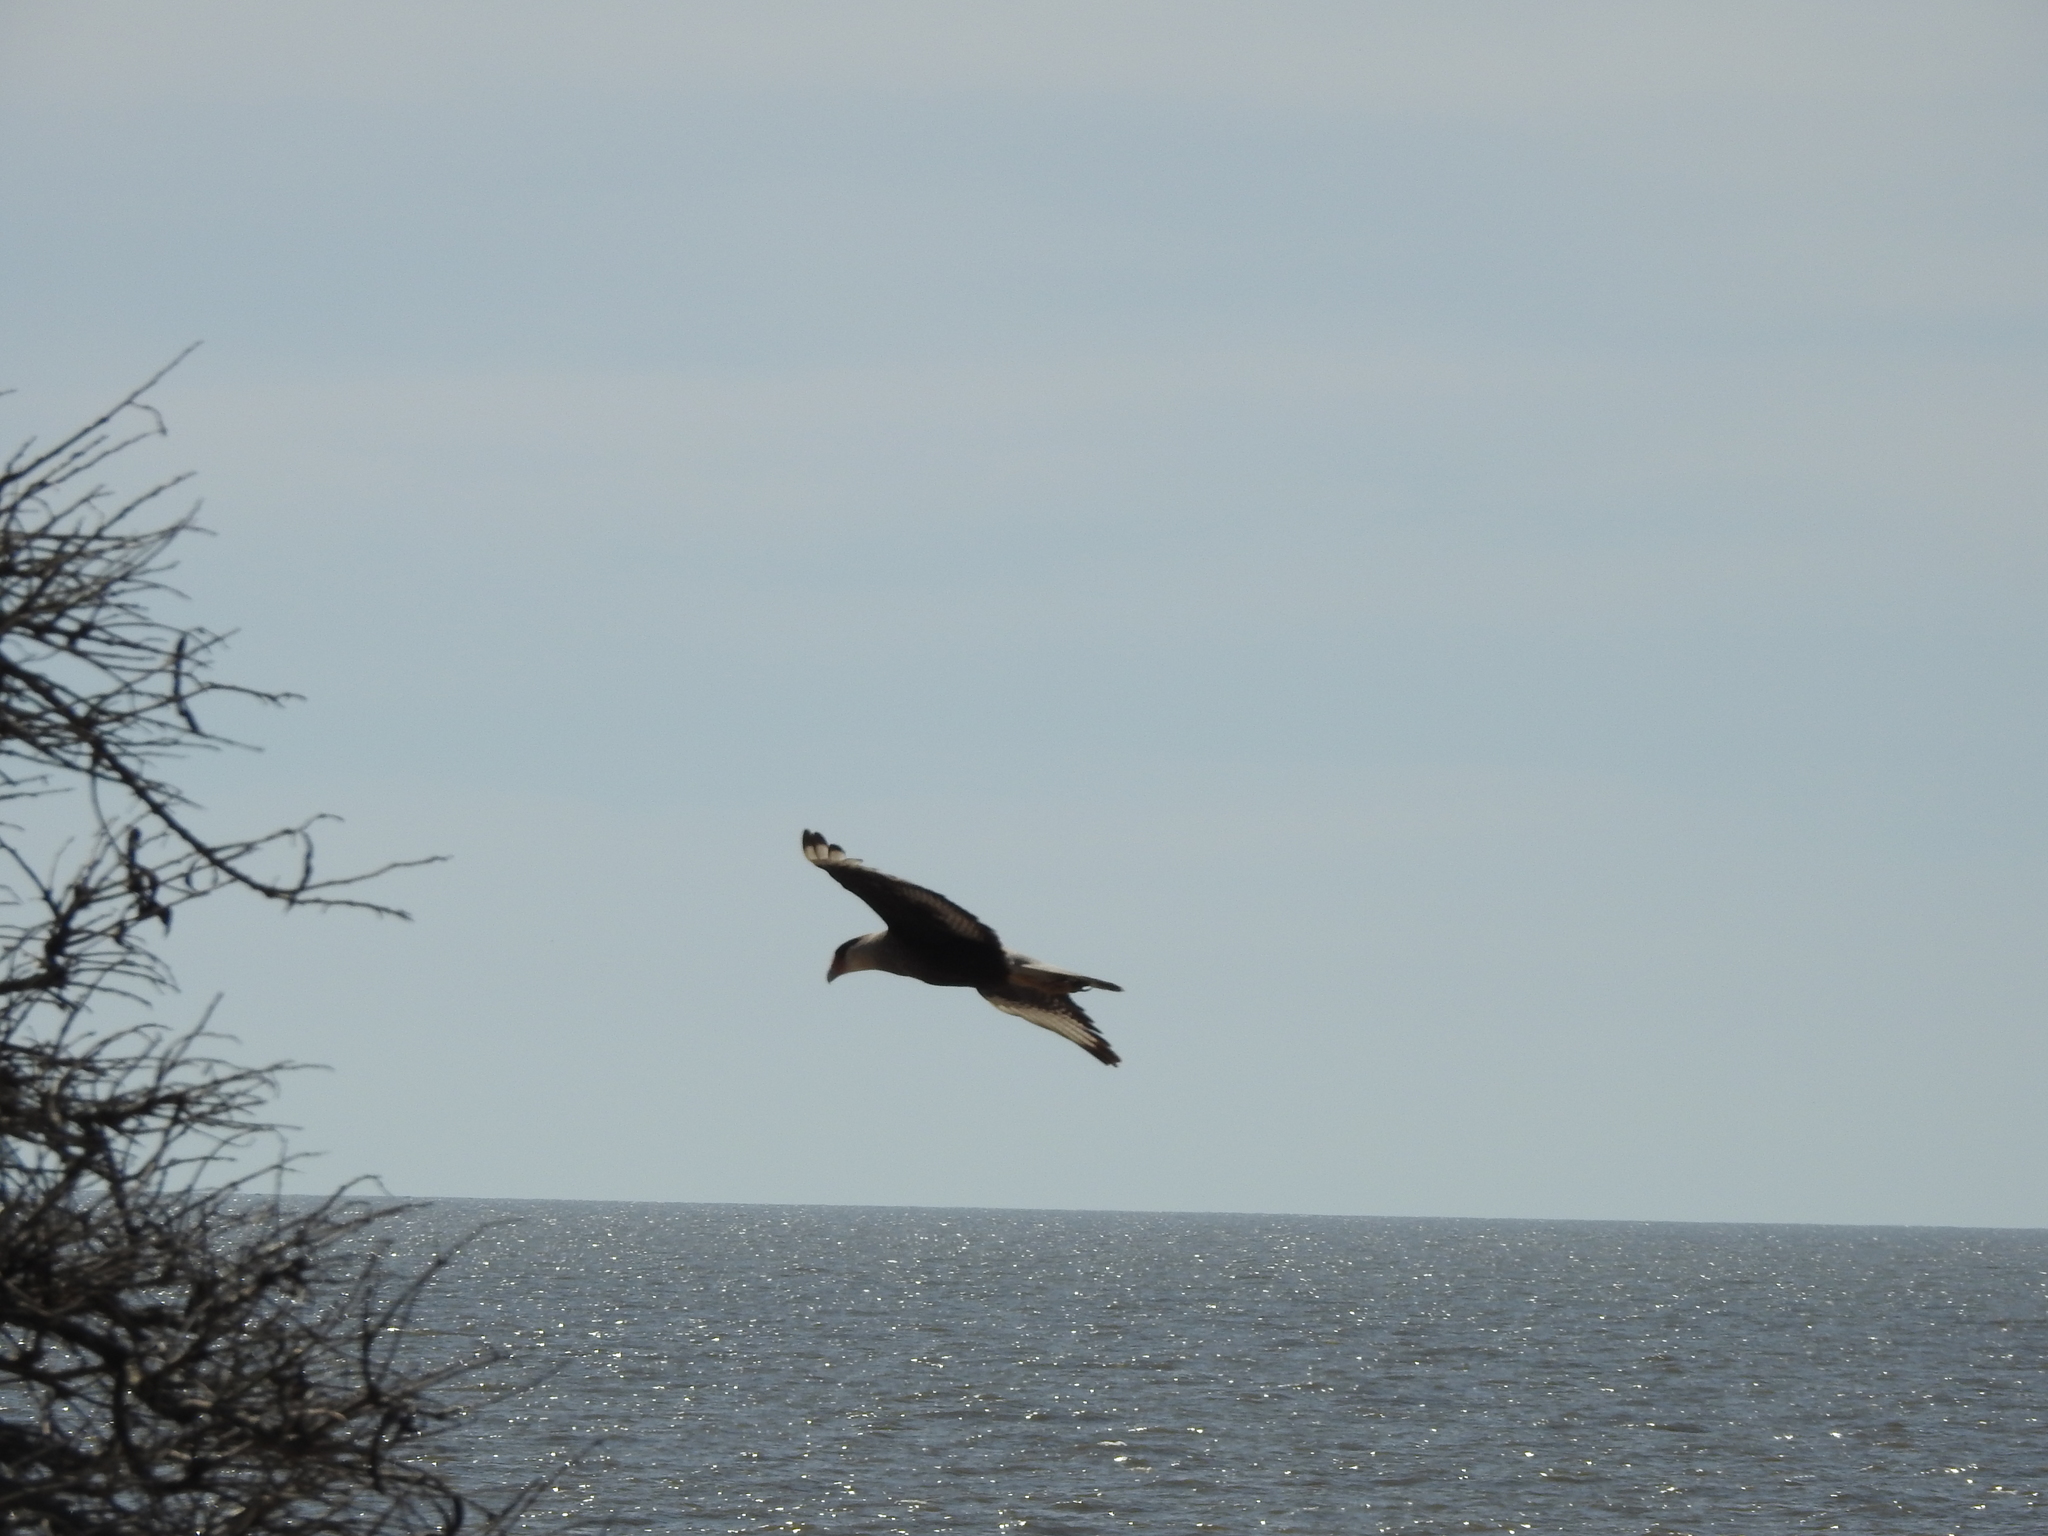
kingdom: Animalia
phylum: Chordata
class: Aves
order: Falconiformes
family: Falconidae
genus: Caracara
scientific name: Caracara plancus
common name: Southern caracara
